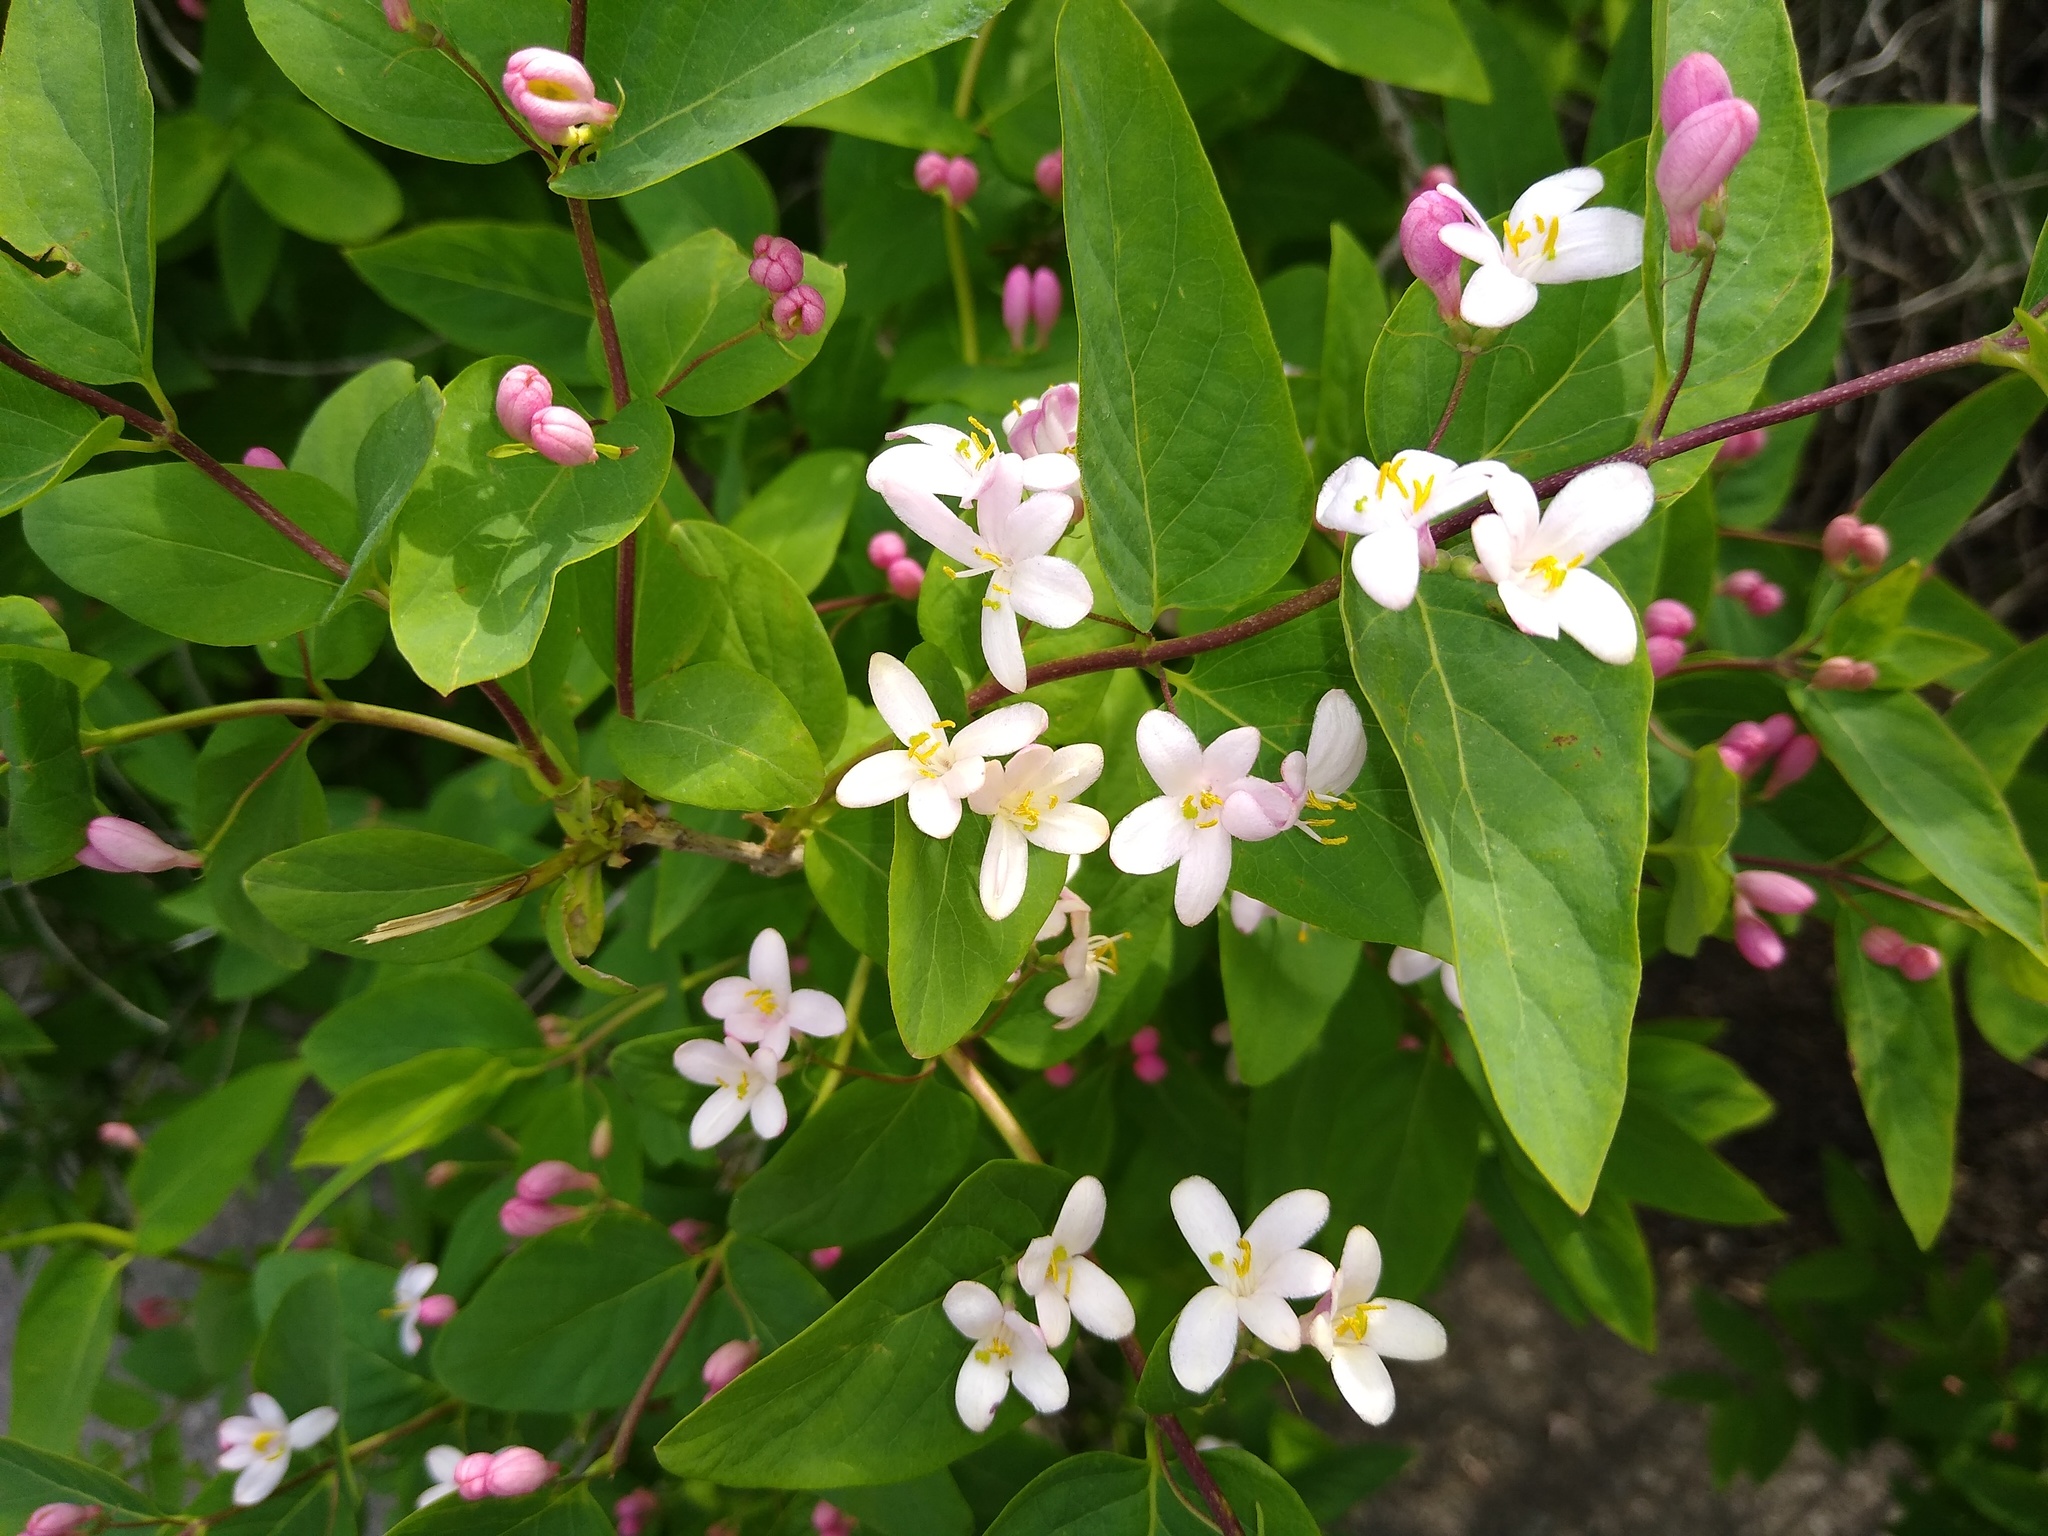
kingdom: Plantae
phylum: Tracheophyta
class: Magnoliopsida
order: Dipsacales
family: Caprifoliaceae
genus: Lonicera
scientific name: Lonicera tatarica
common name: Tatarian honeysuckle
